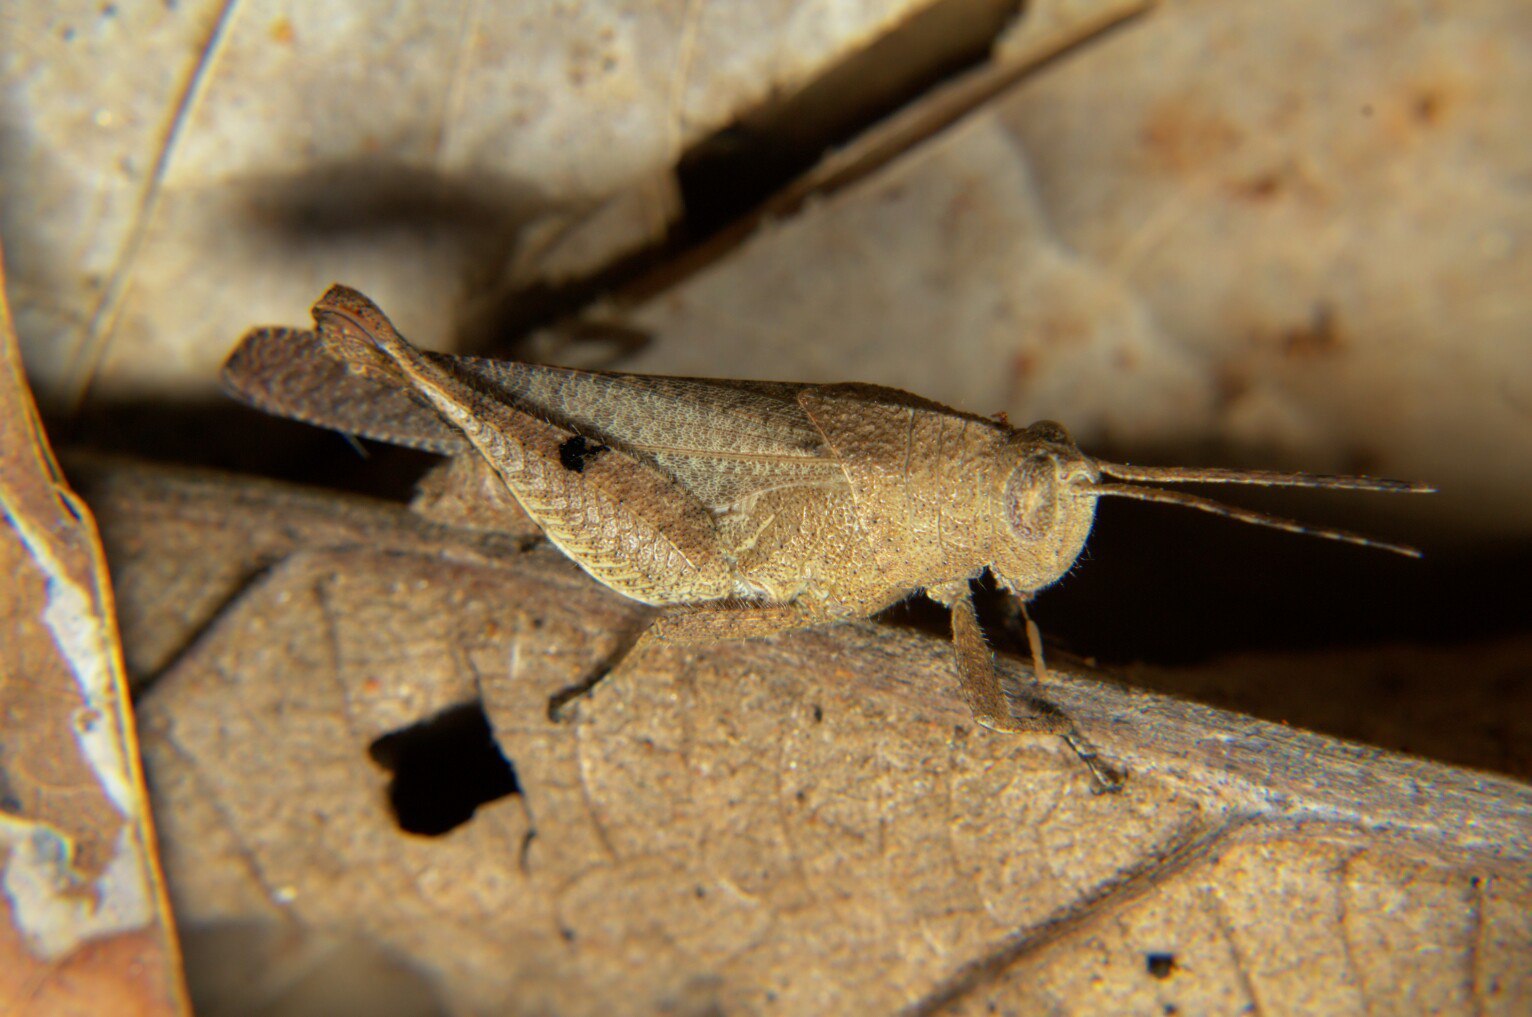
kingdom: Animalia
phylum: Arthropoda
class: Insecta
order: Orthoptera
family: Acrididae
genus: Eucoptacra
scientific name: Eucoptacra praemorsa
